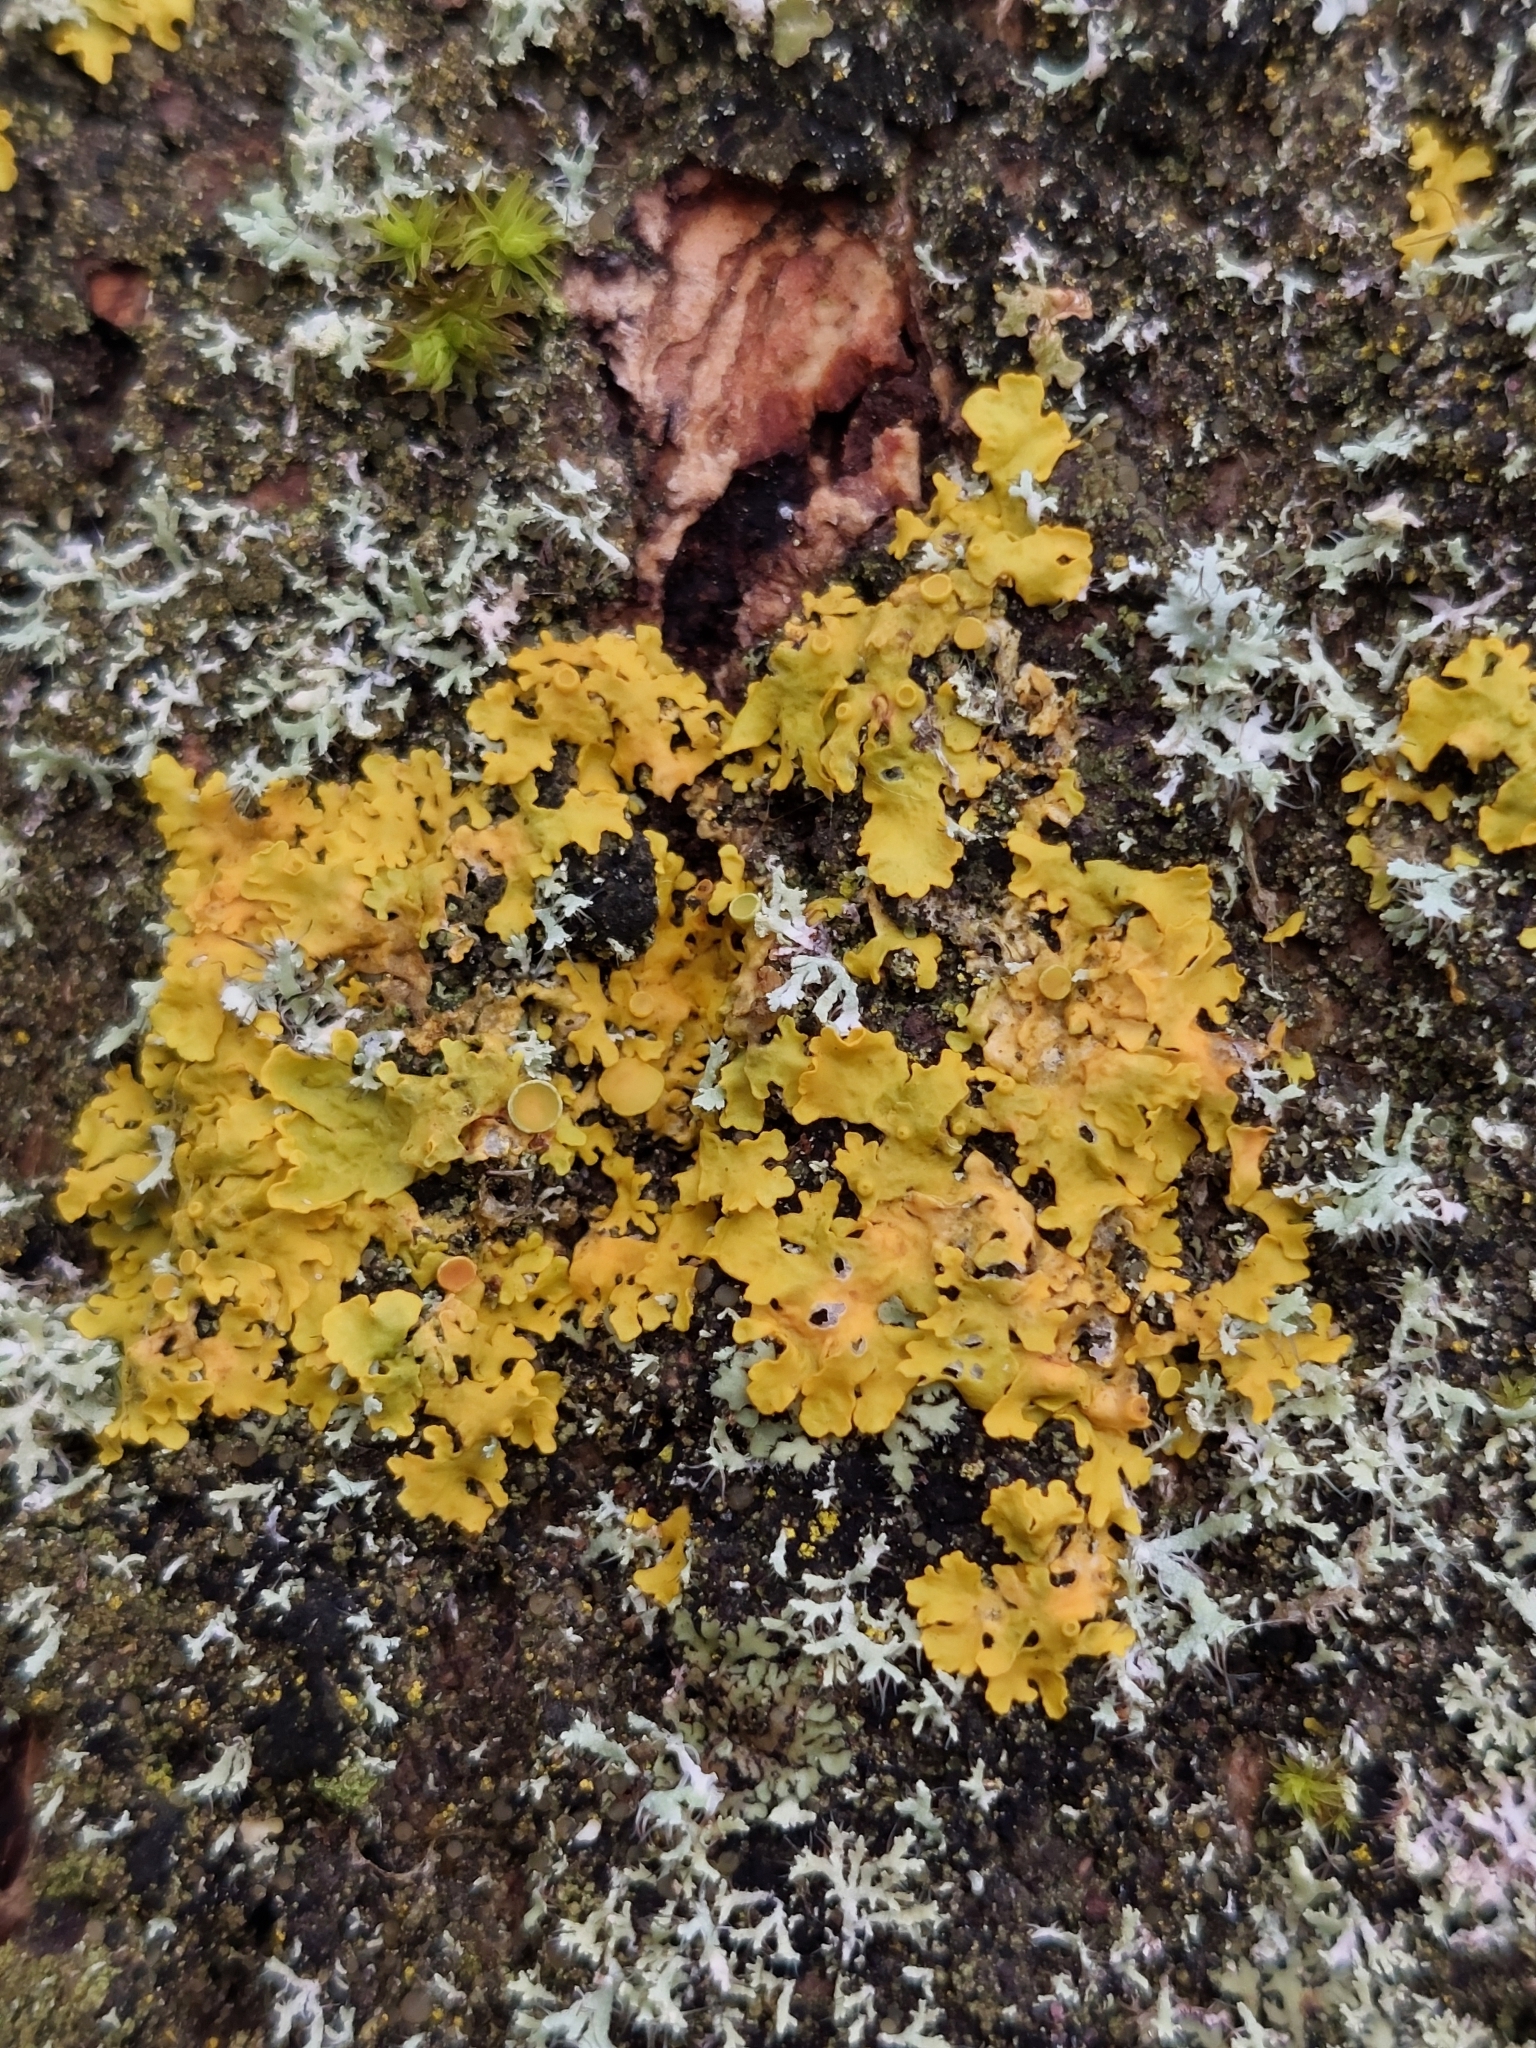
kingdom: Fungi
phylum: Ascomycota
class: Lecanoromycetes
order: Teloschistales
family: Teloschistaceae
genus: Xanthoria
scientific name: Xanthoria parietina
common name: Common orange lichen
